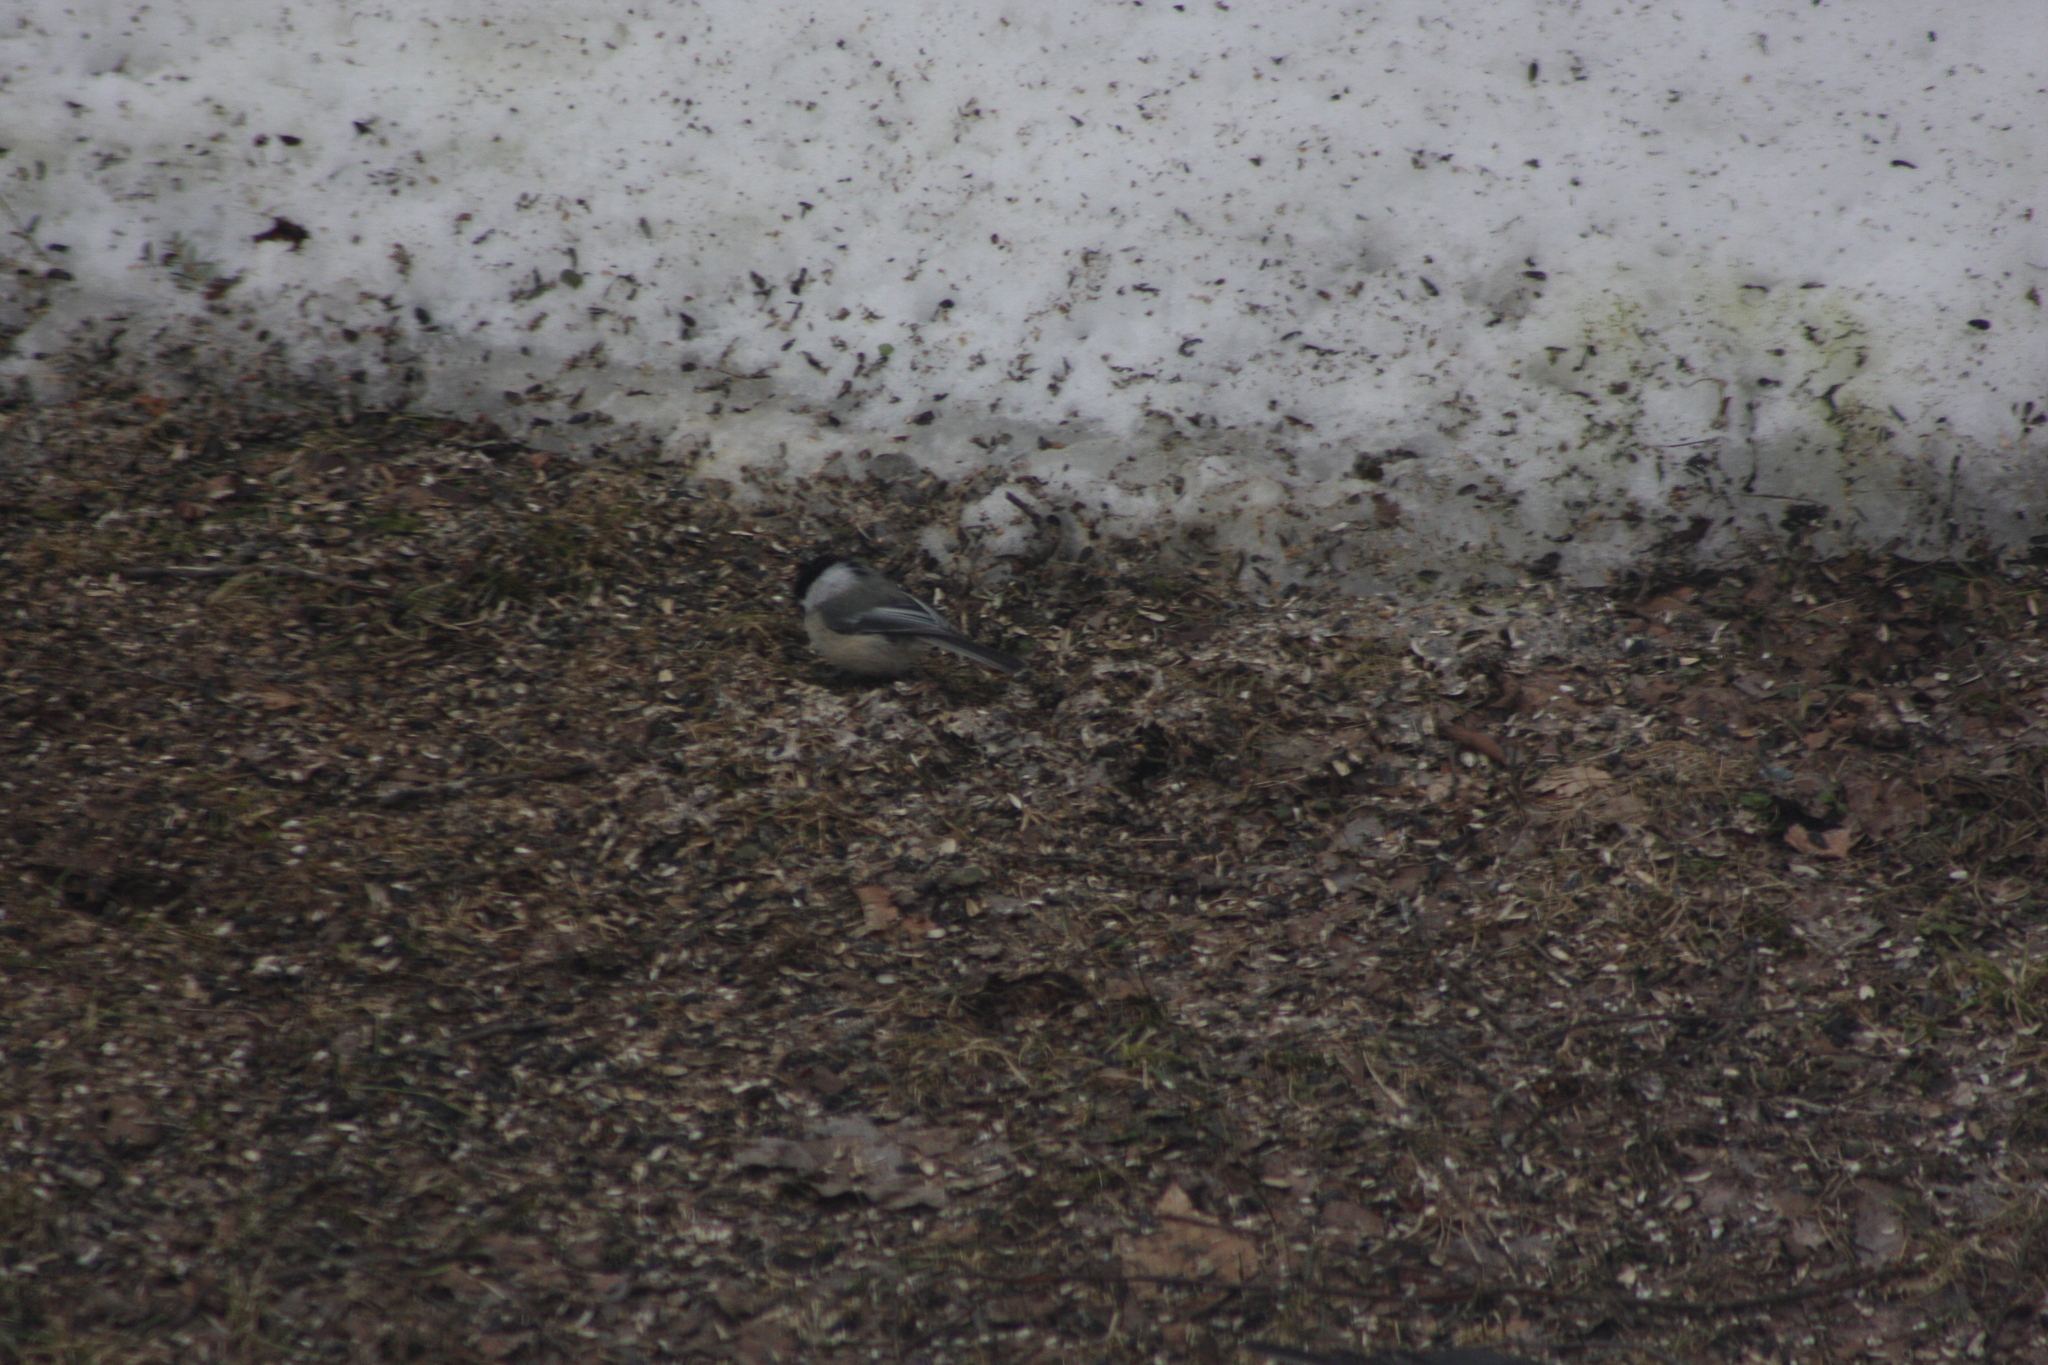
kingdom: Animalia
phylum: Chordata
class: Aves
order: Passeriformes
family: Paridae
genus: Poecile
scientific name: Poecile atricapillus
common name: Black-capped chickadee
